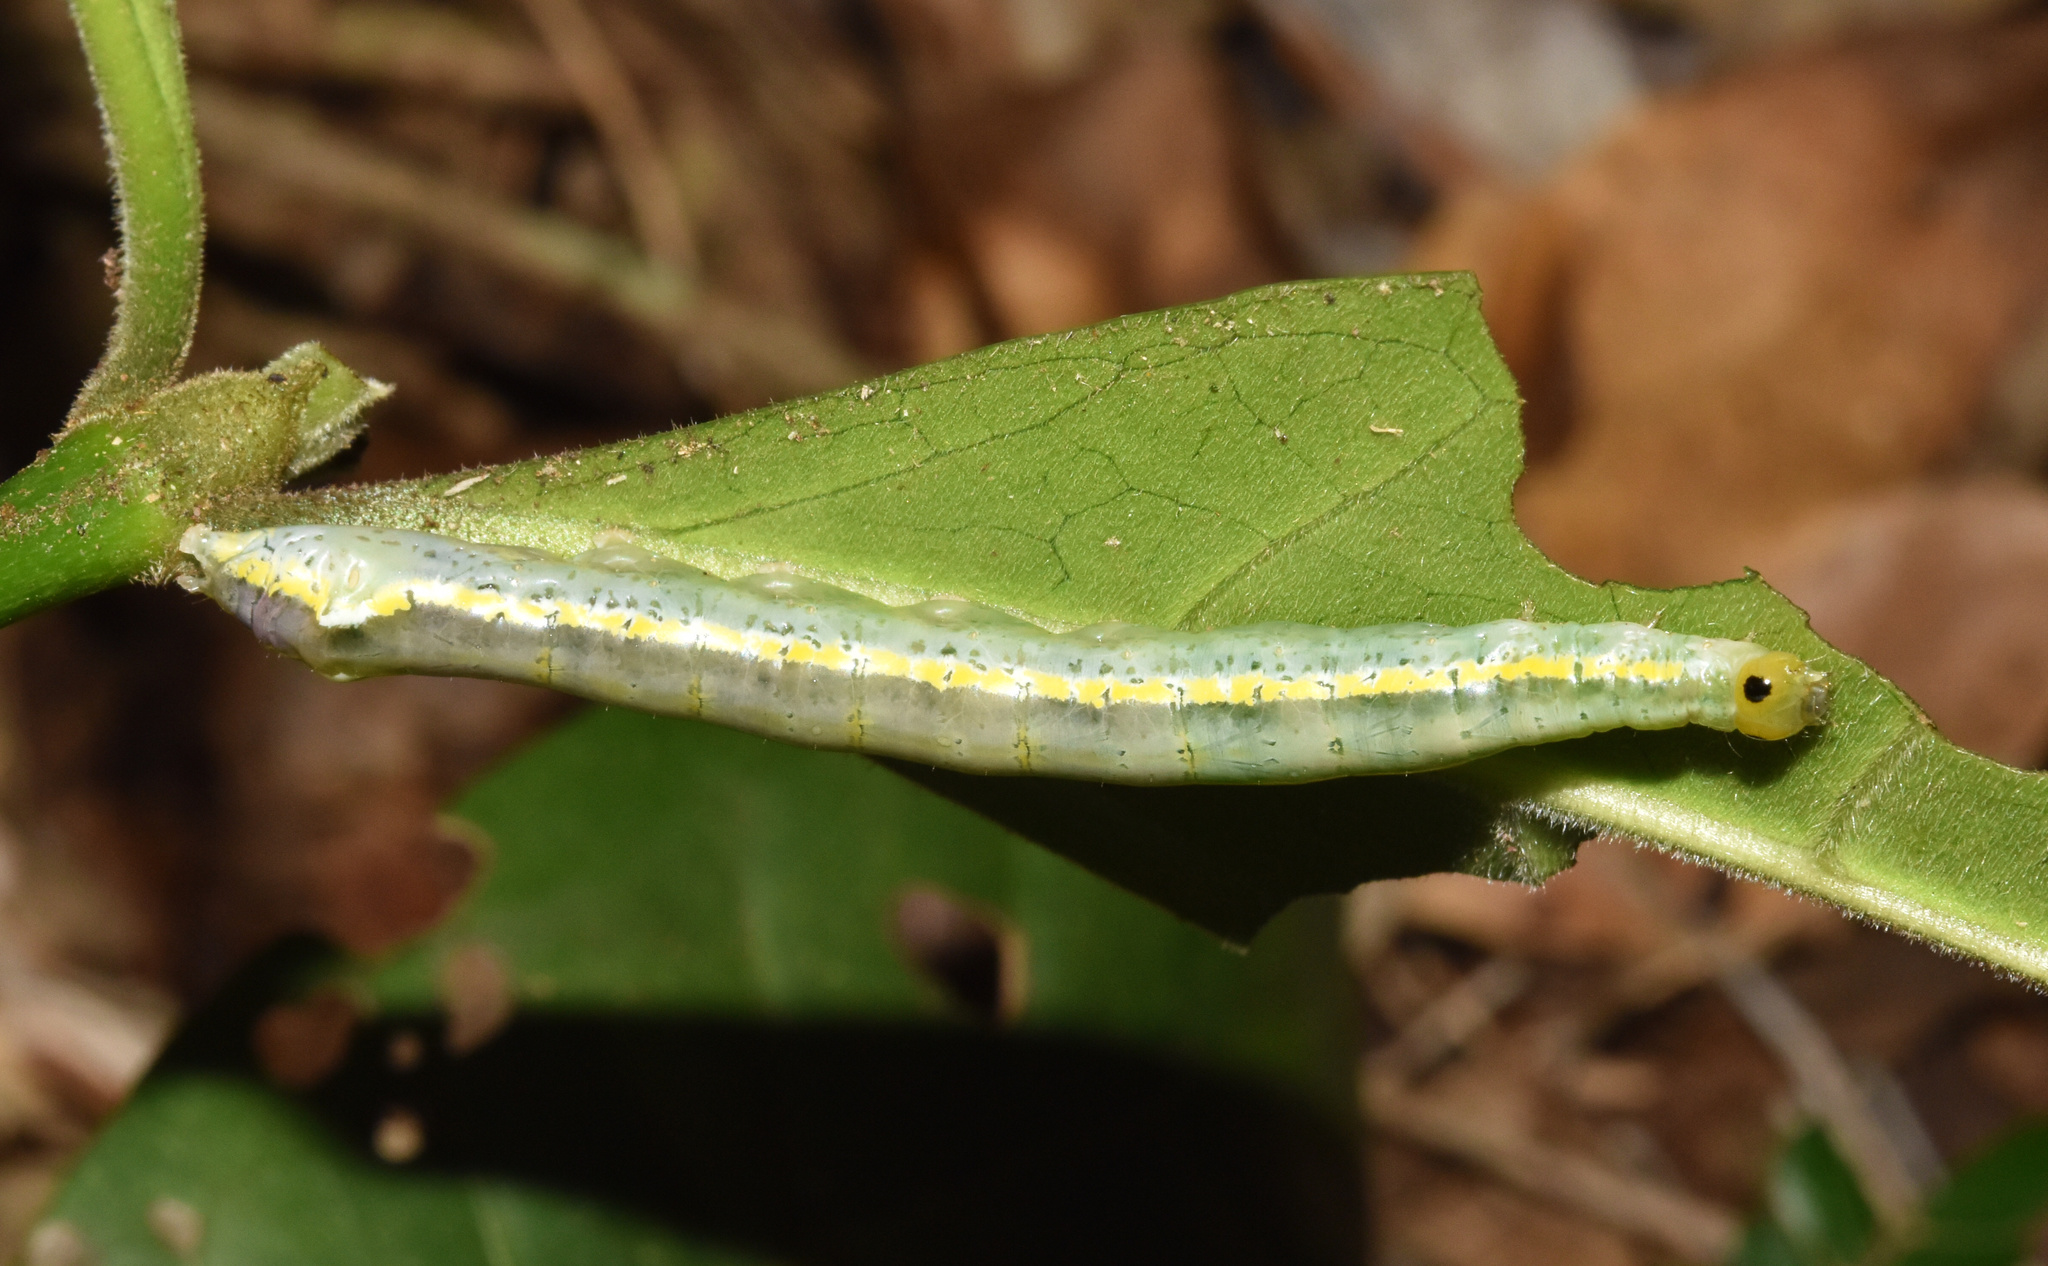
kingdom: Animalia
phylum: Arthropoda
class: Insecta
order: Lepidoptera
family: Noctuidae
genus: Euplexia
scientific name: Euplexia catephiodes
